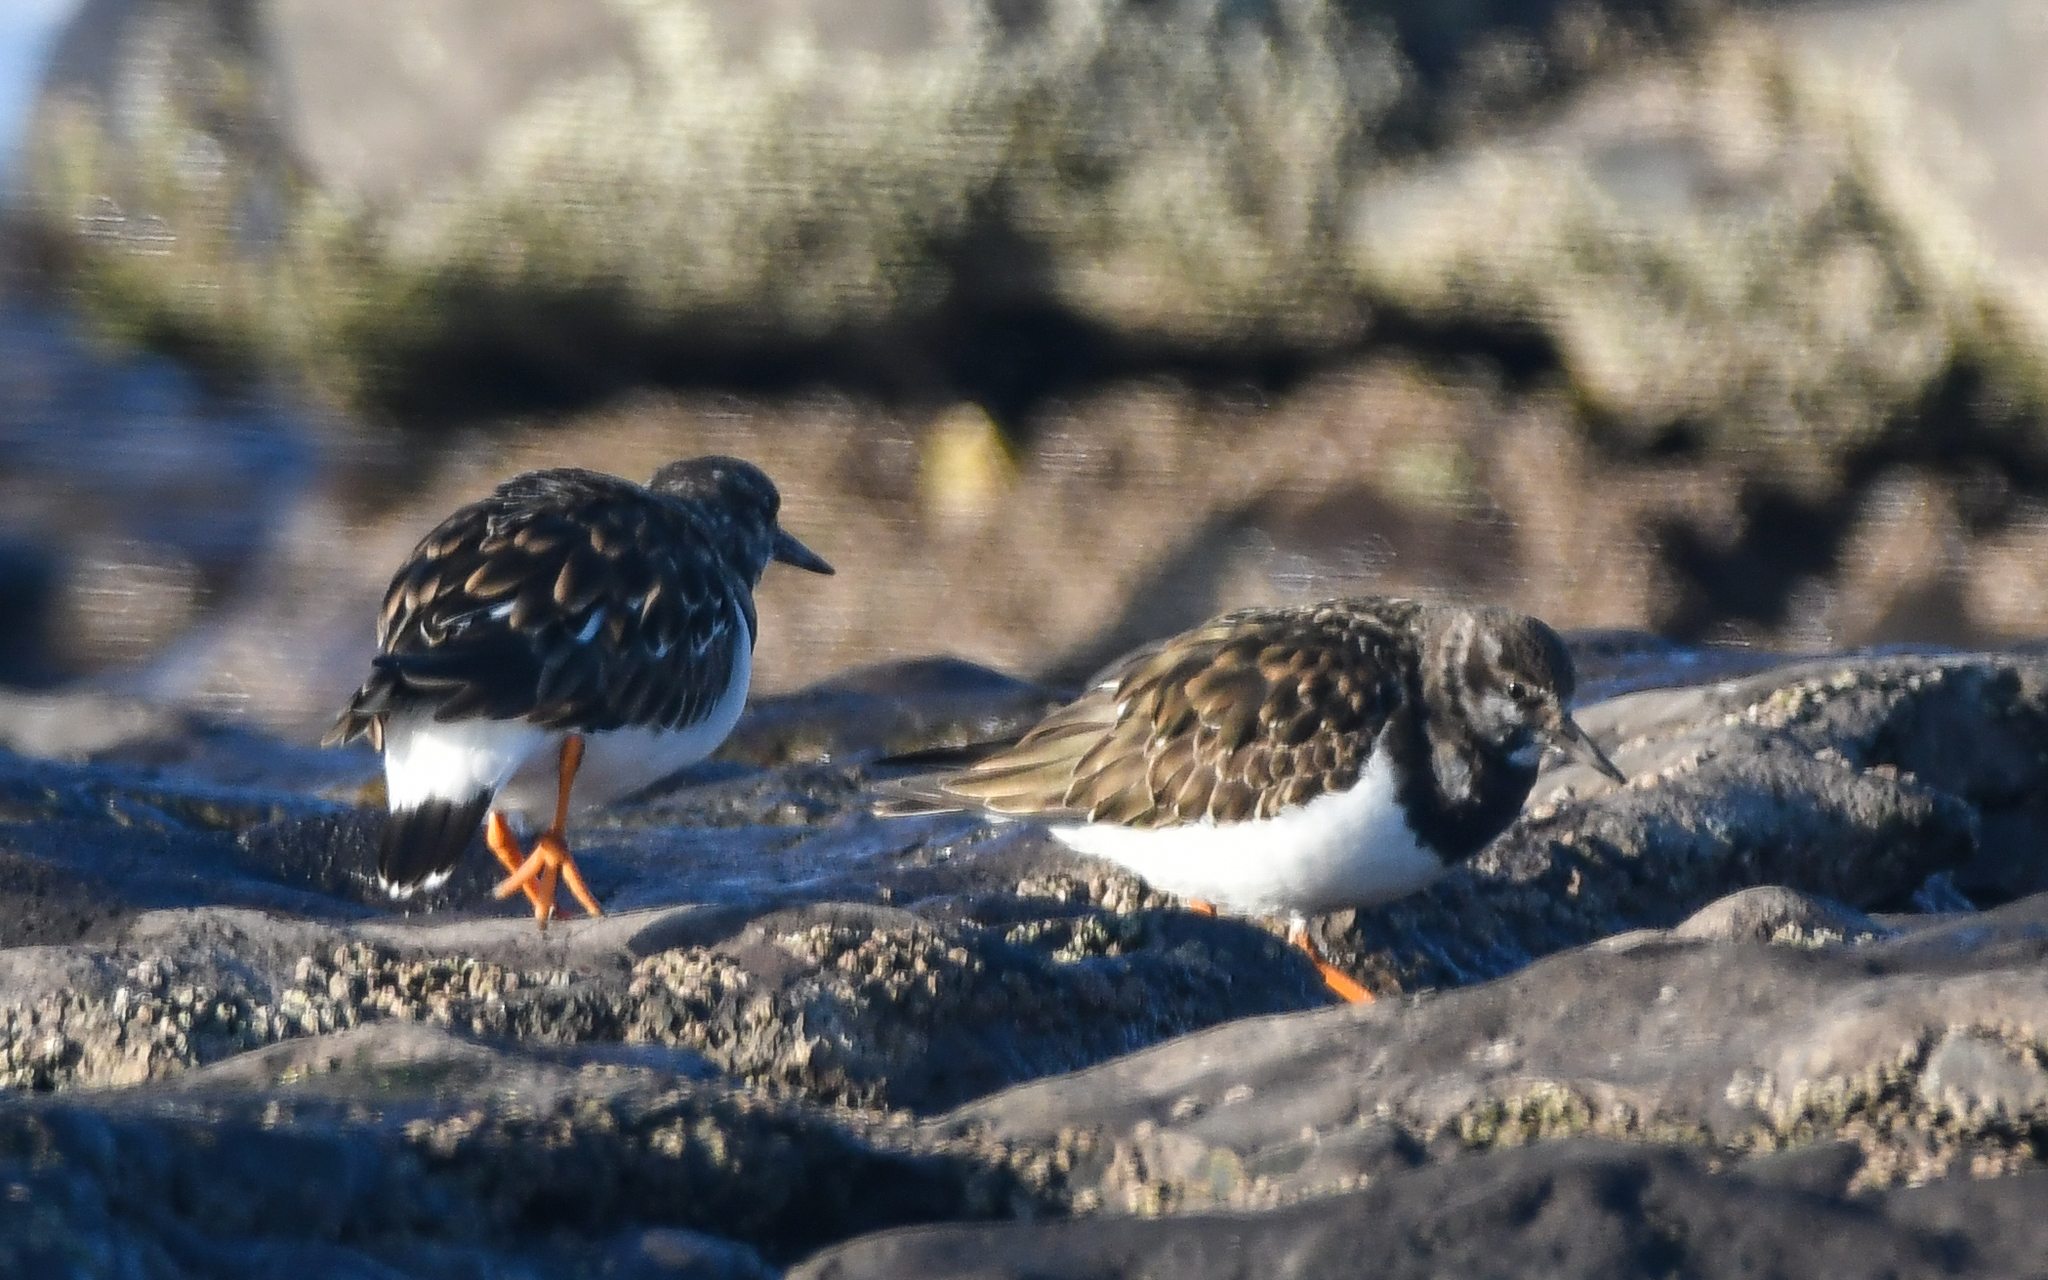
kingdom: Animalia
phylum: Chordata
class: Aves
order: Charadriiformes
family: Scolopacidae
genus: Arenaria
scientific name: Arenaria interpres
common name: Ruddy turnstone
